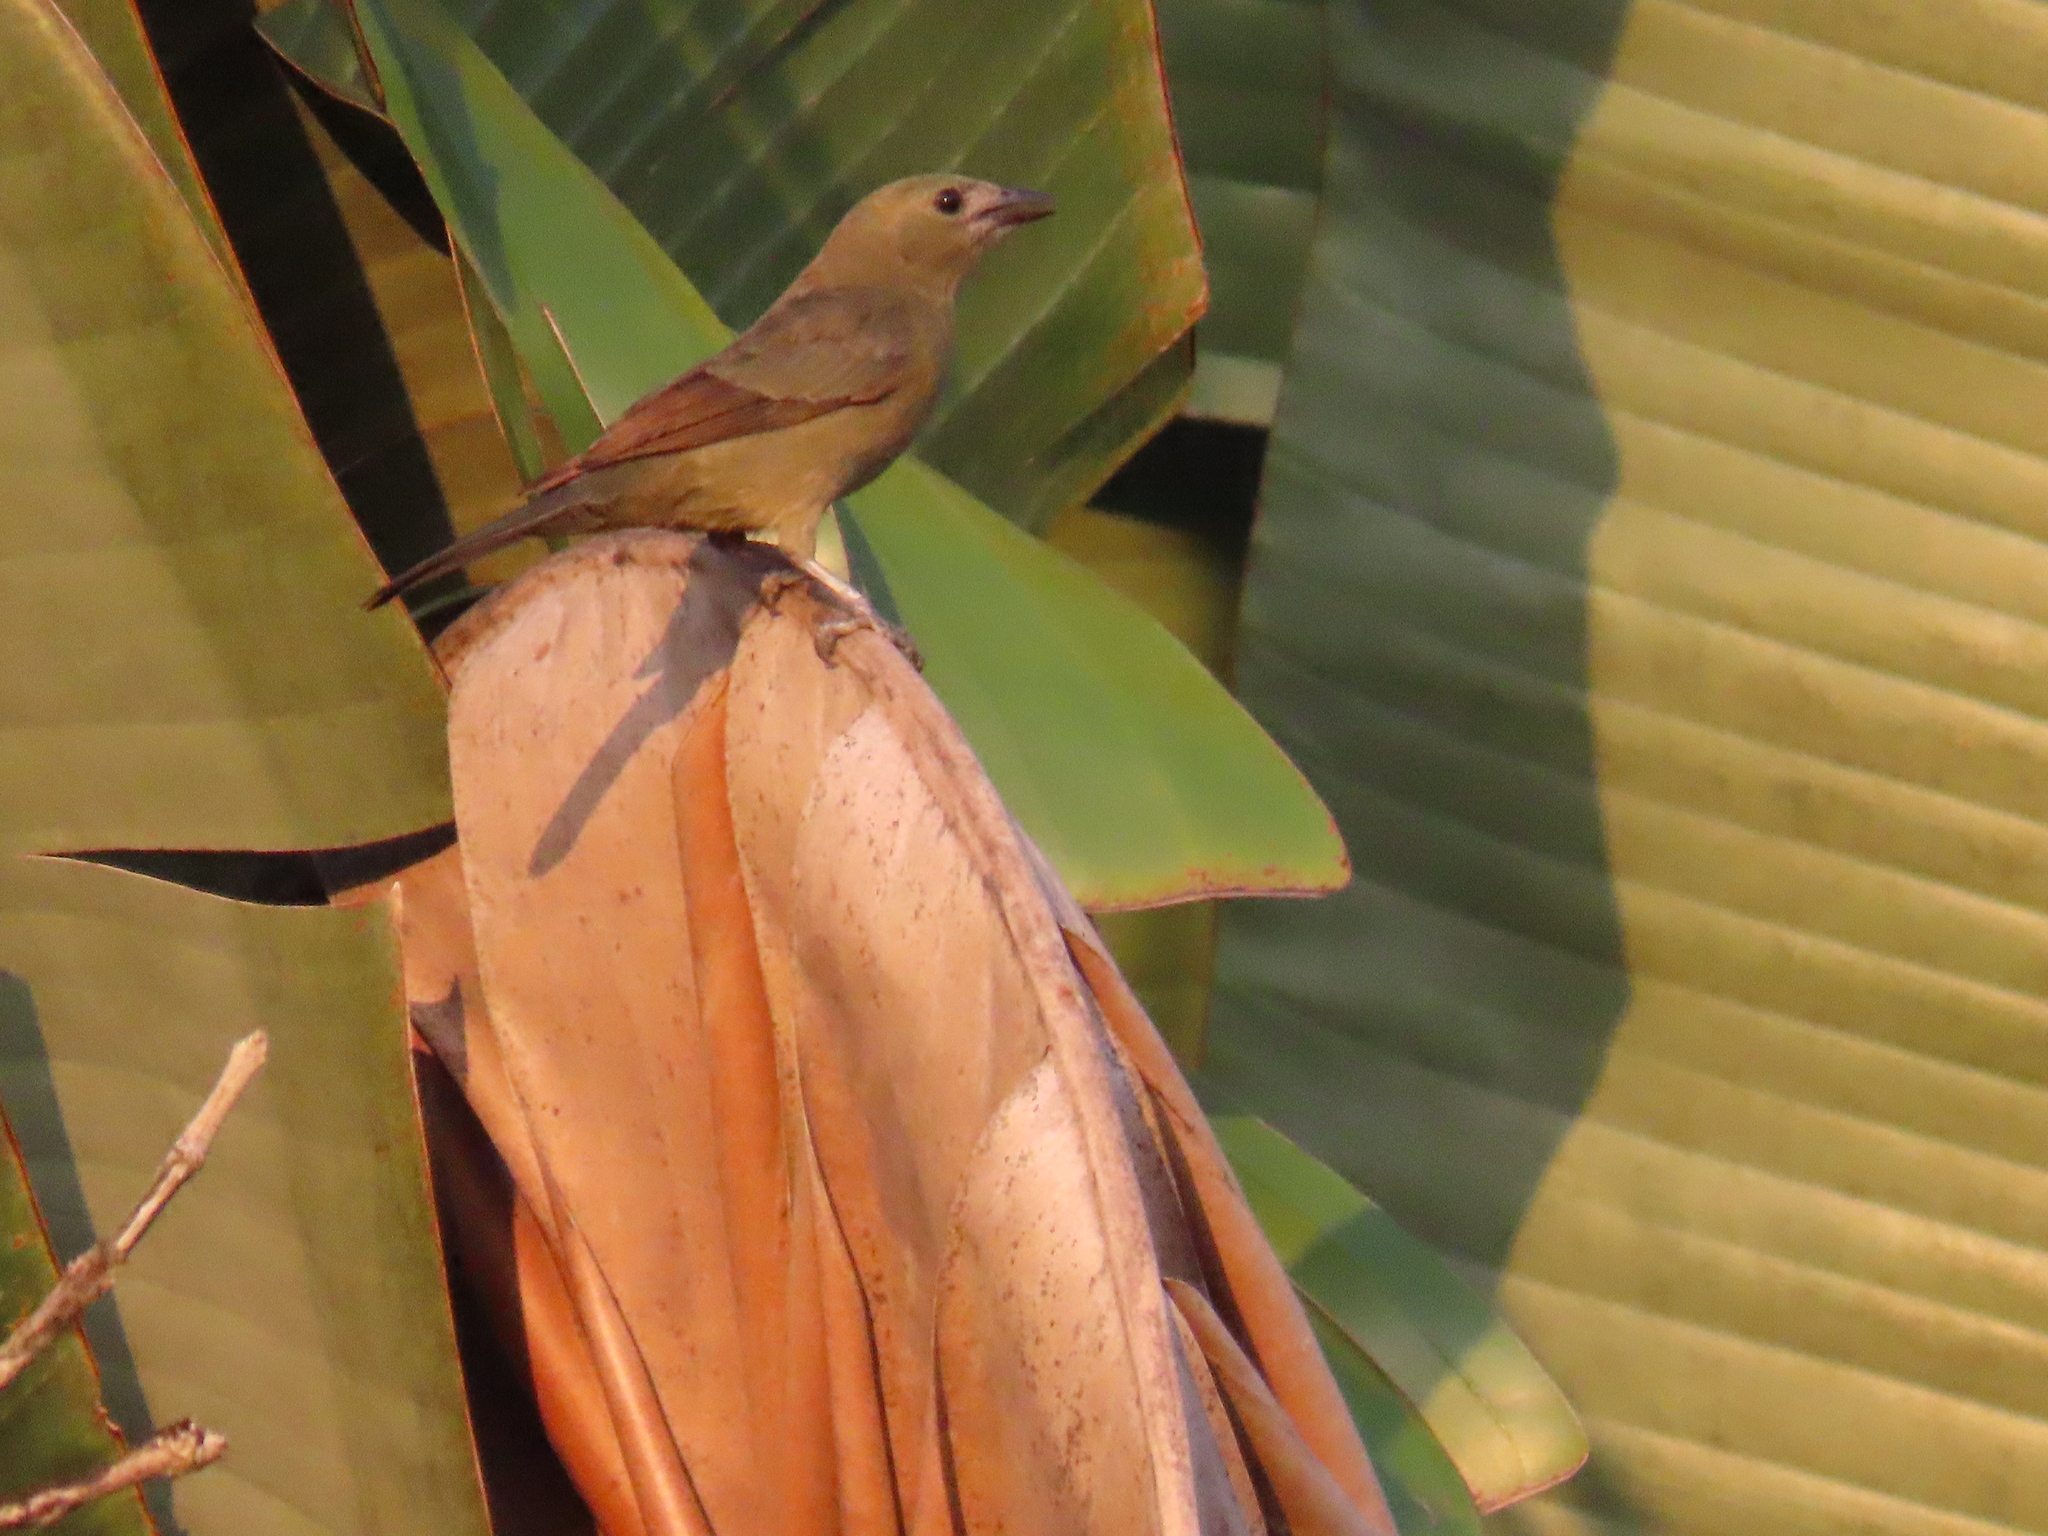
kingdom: Animalia
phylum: Chordata
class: Aves
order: Passeriformes
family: Thraupidae
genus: Thraupis
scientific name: Thraupis palmarum
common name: Palm tanager
